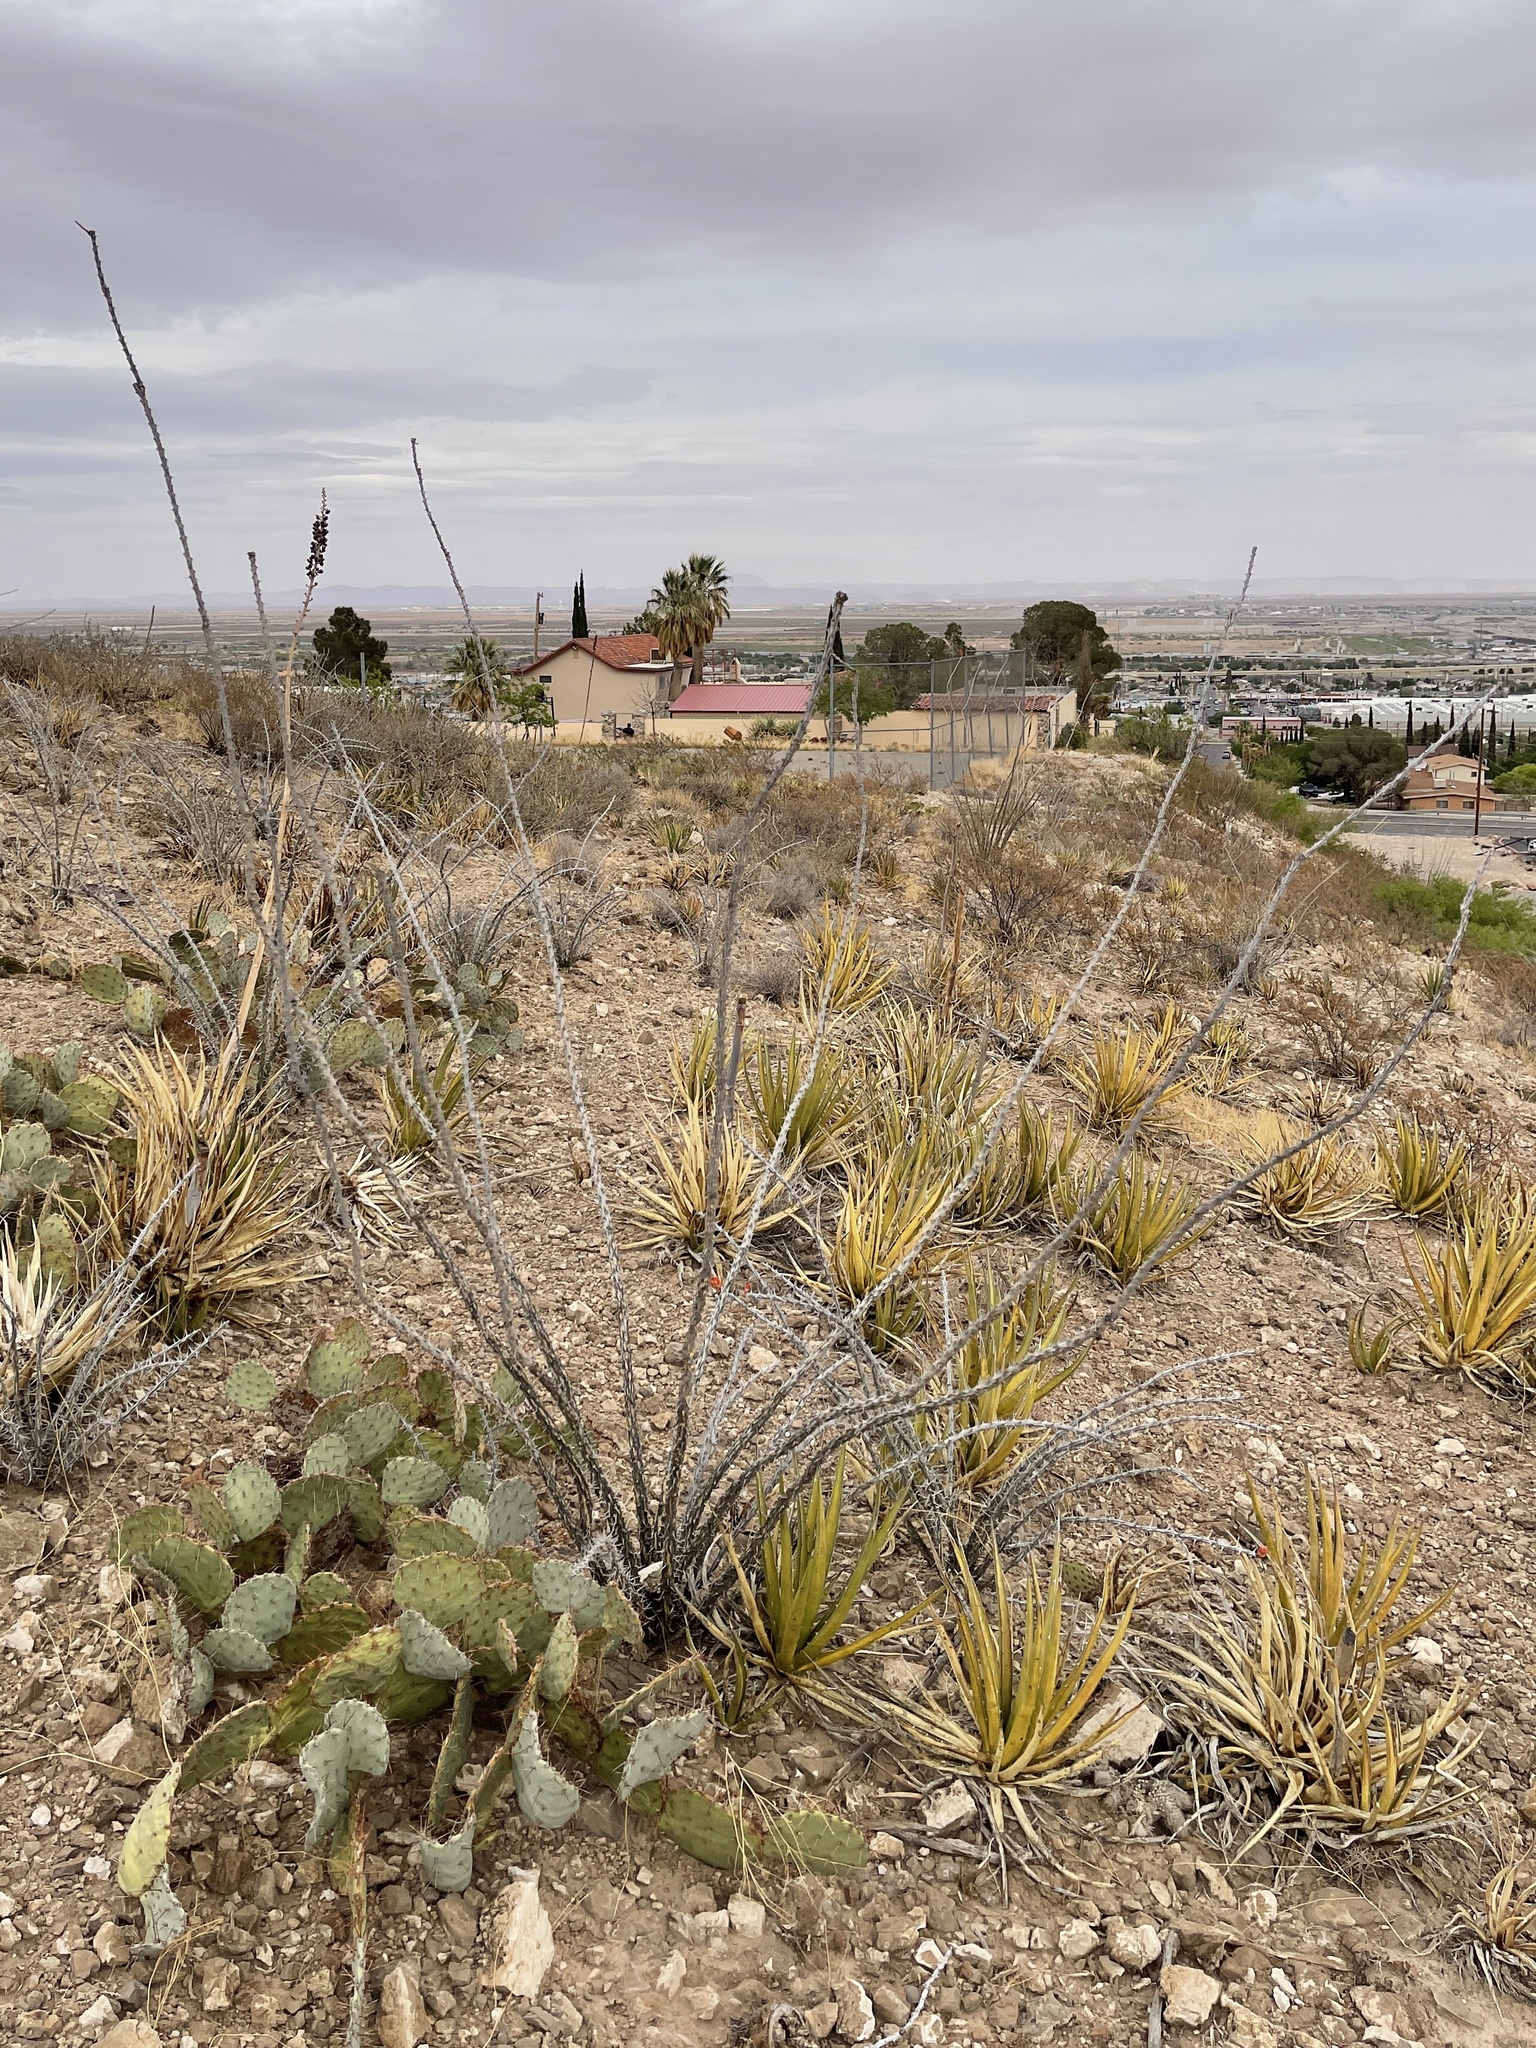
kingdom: Plantae
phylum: Tracheophyta
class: Magnoliopsida
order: Ericales
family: Fouquieriaceae
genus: Fouquieria
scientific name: Fouquieria splendens
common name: Vine-cactus
